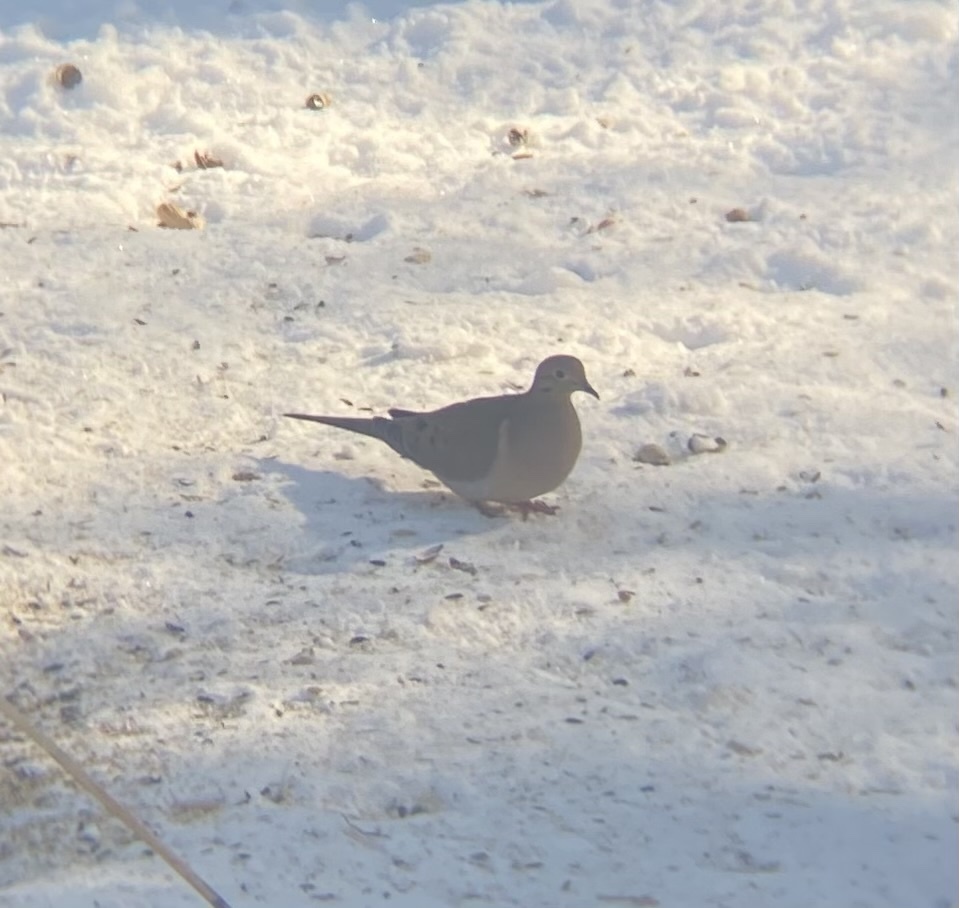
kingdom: Animalia
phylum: Chordata
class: Aves
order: Columbiformes
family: Columbidae
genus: Zenaida
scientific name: Zenaida macroura
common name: Mourning dove
